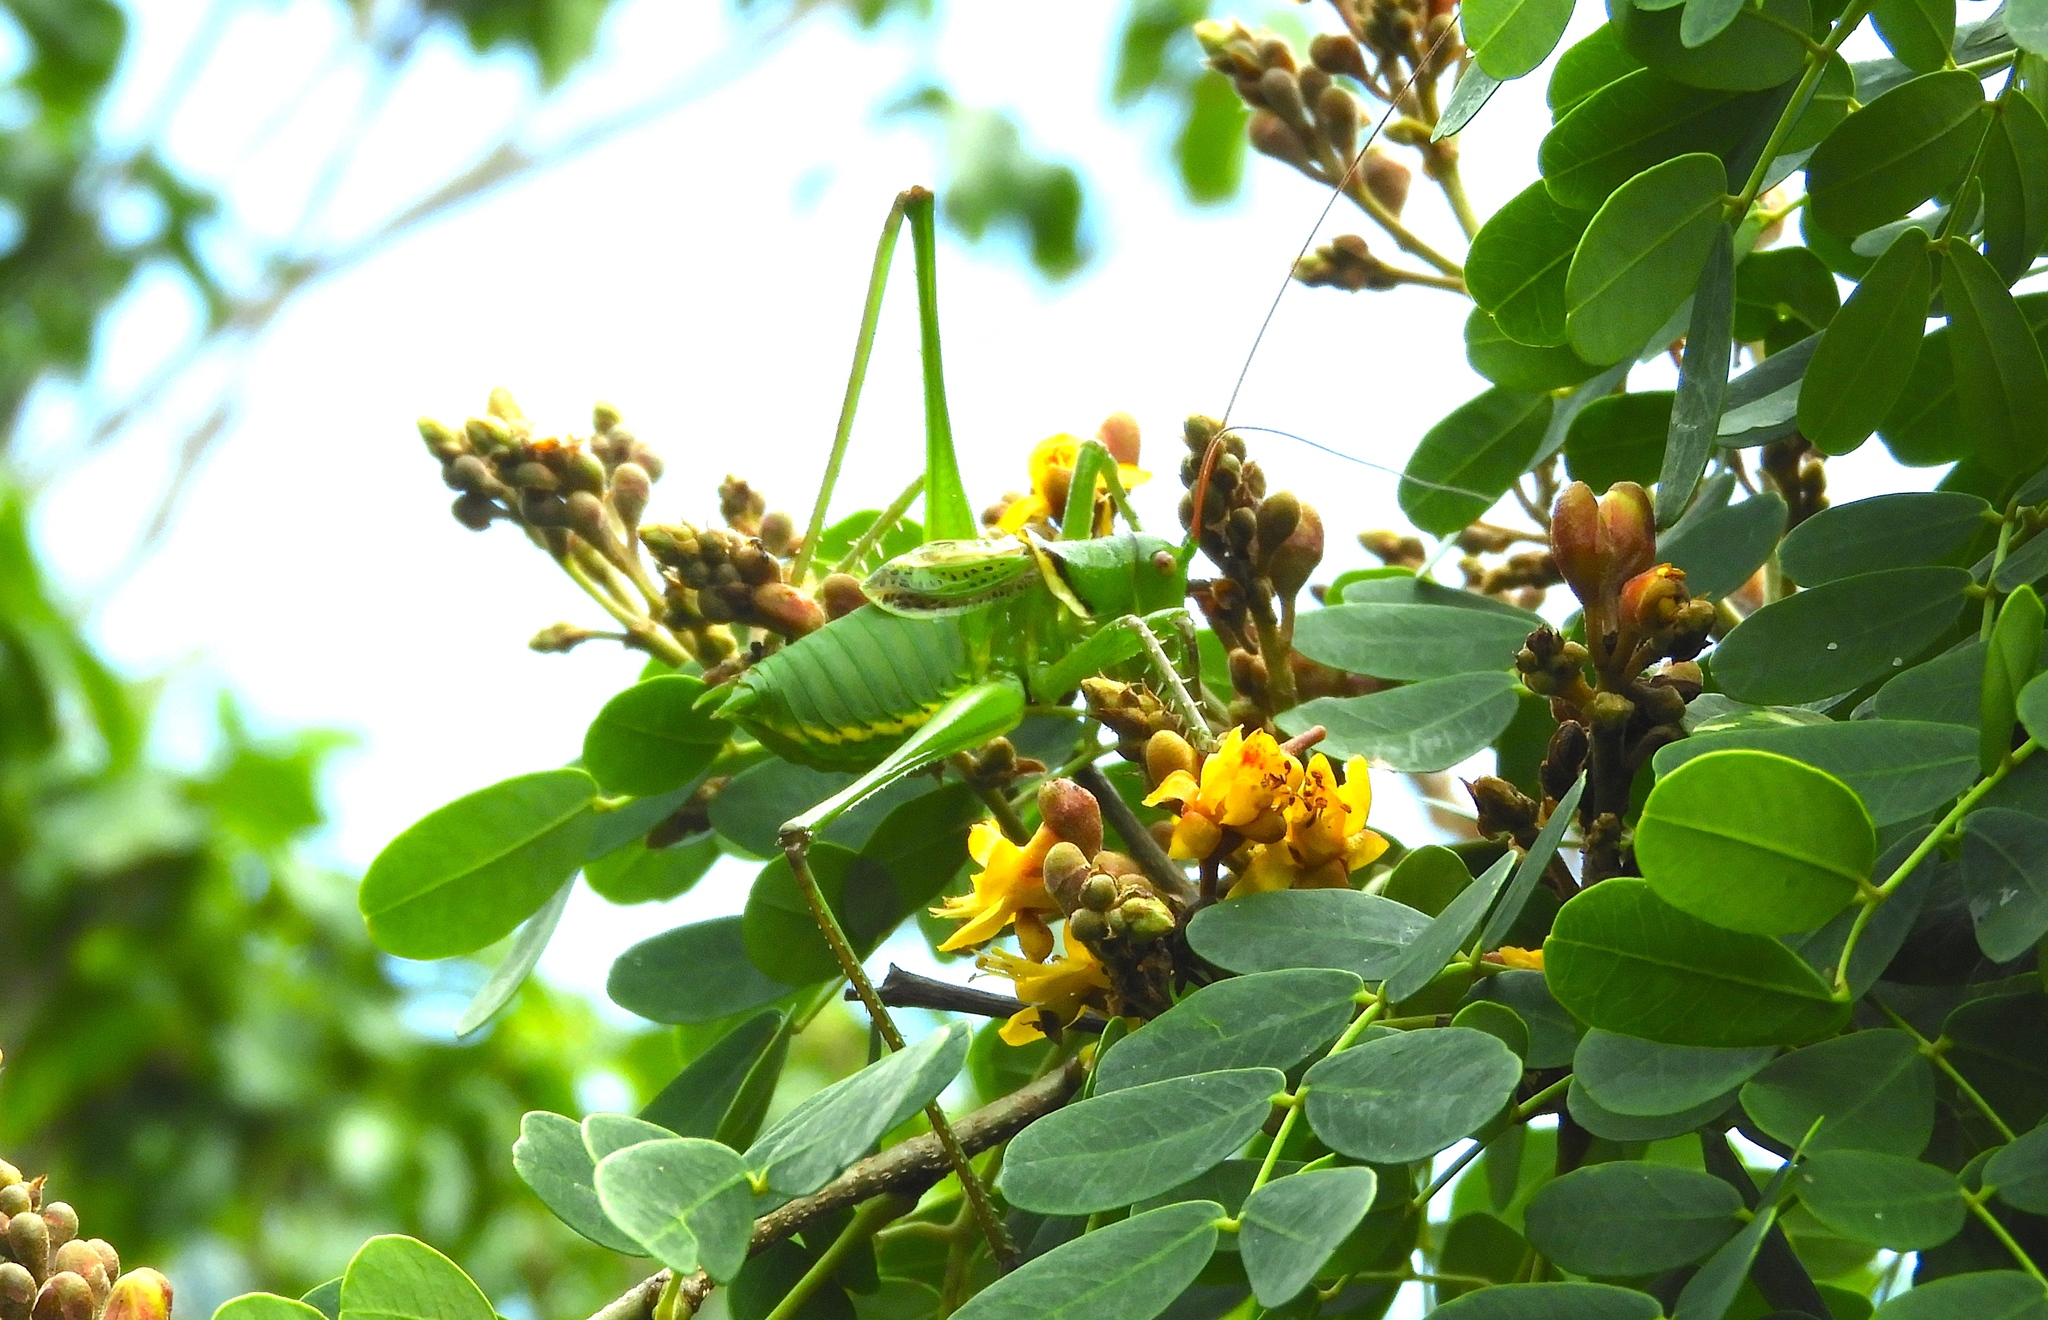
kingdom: Animalia
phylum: Arthropoda
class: Insecta
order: Orthoptera
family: Tettigoniidae
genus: Neobarrettia
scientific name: Neobarrettia sinaloae
